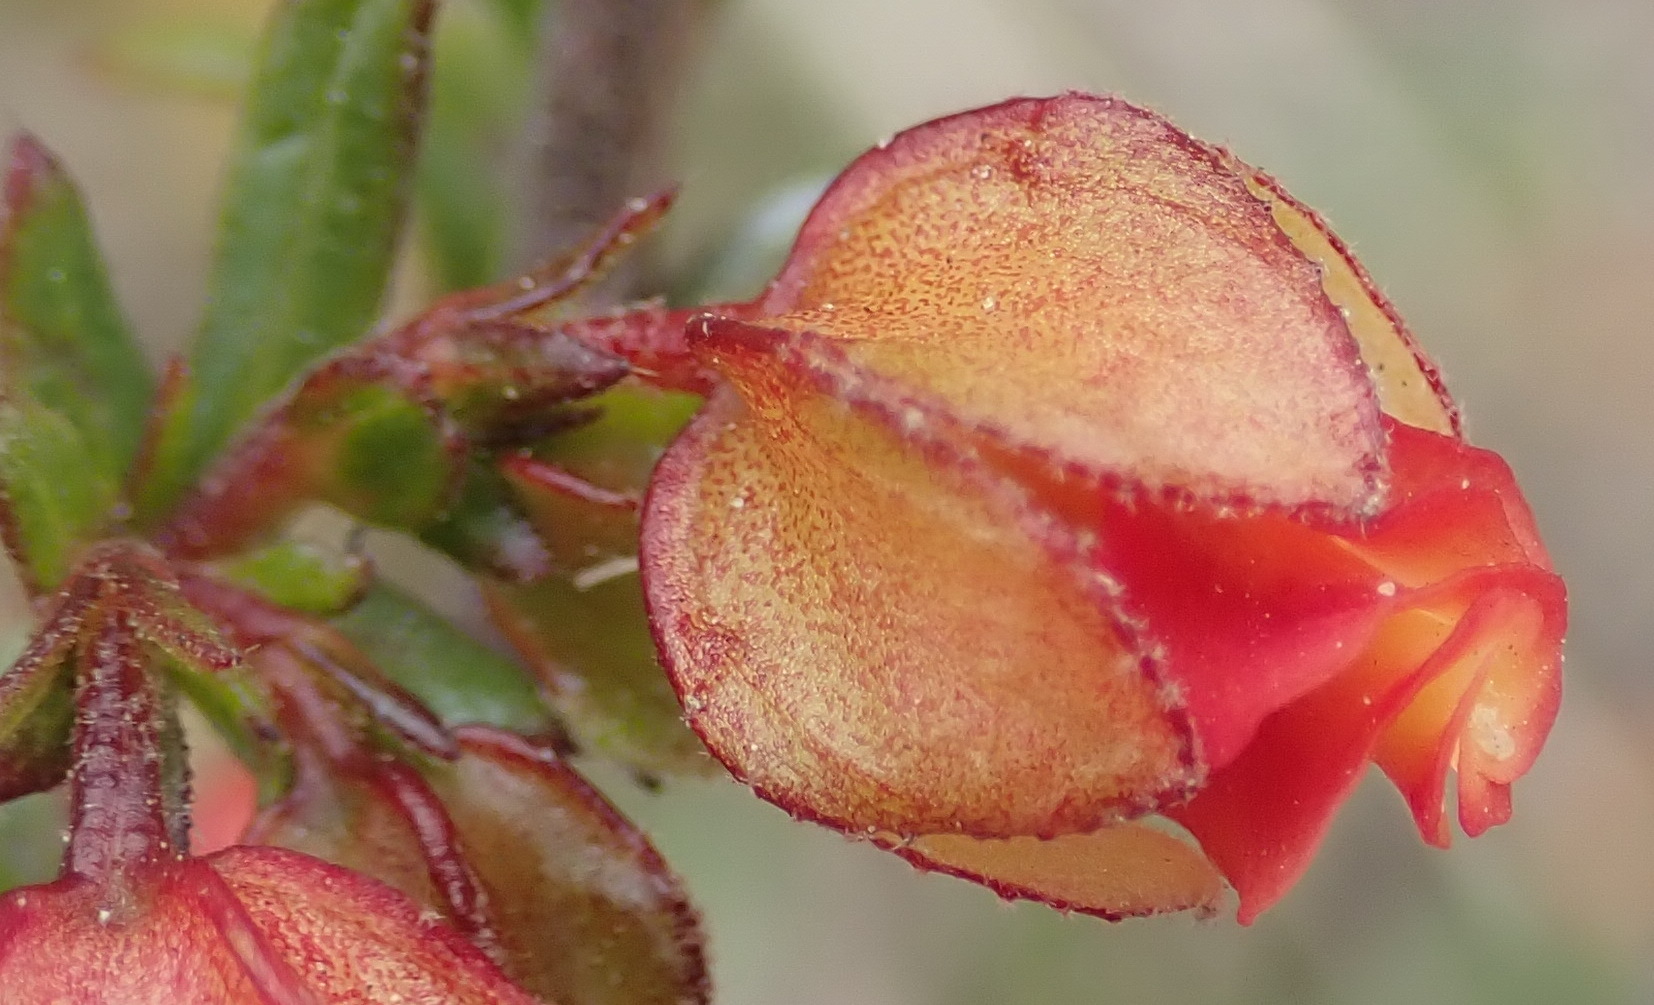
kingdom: Plantae
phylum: Tracheophyta
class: Magnoliopsida
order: Malvales
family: Malvaceae
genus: Hermannia
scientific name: Hermannia angularis
